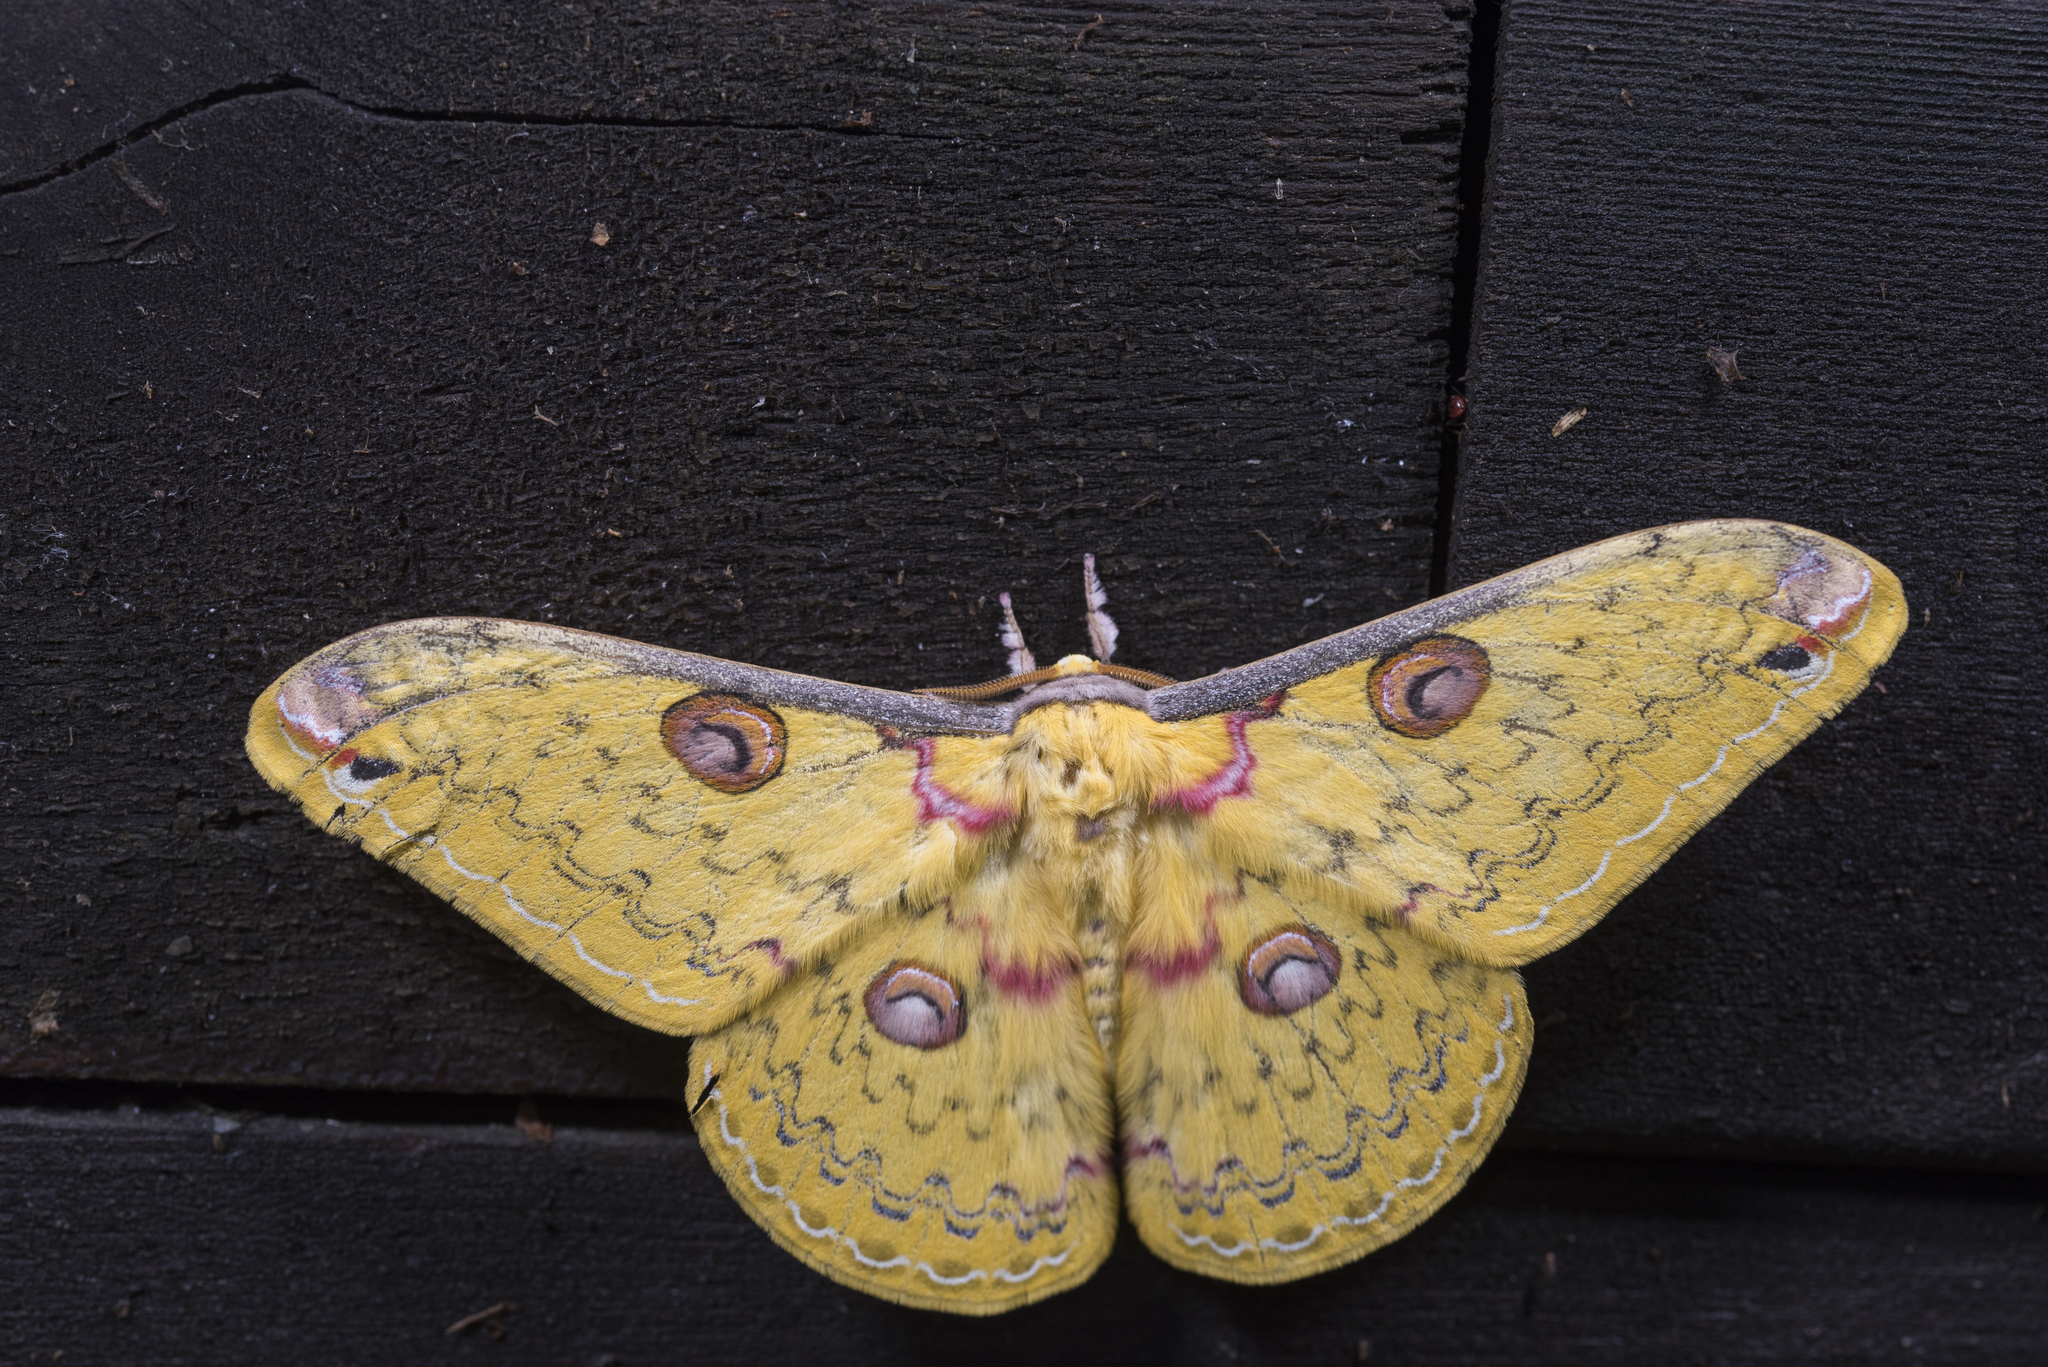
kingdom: Animalia
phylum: Arthropoda
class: Insecta
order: Lepidoptera
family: Saturniidae
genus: Loepa
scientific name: Loepa formosensis
